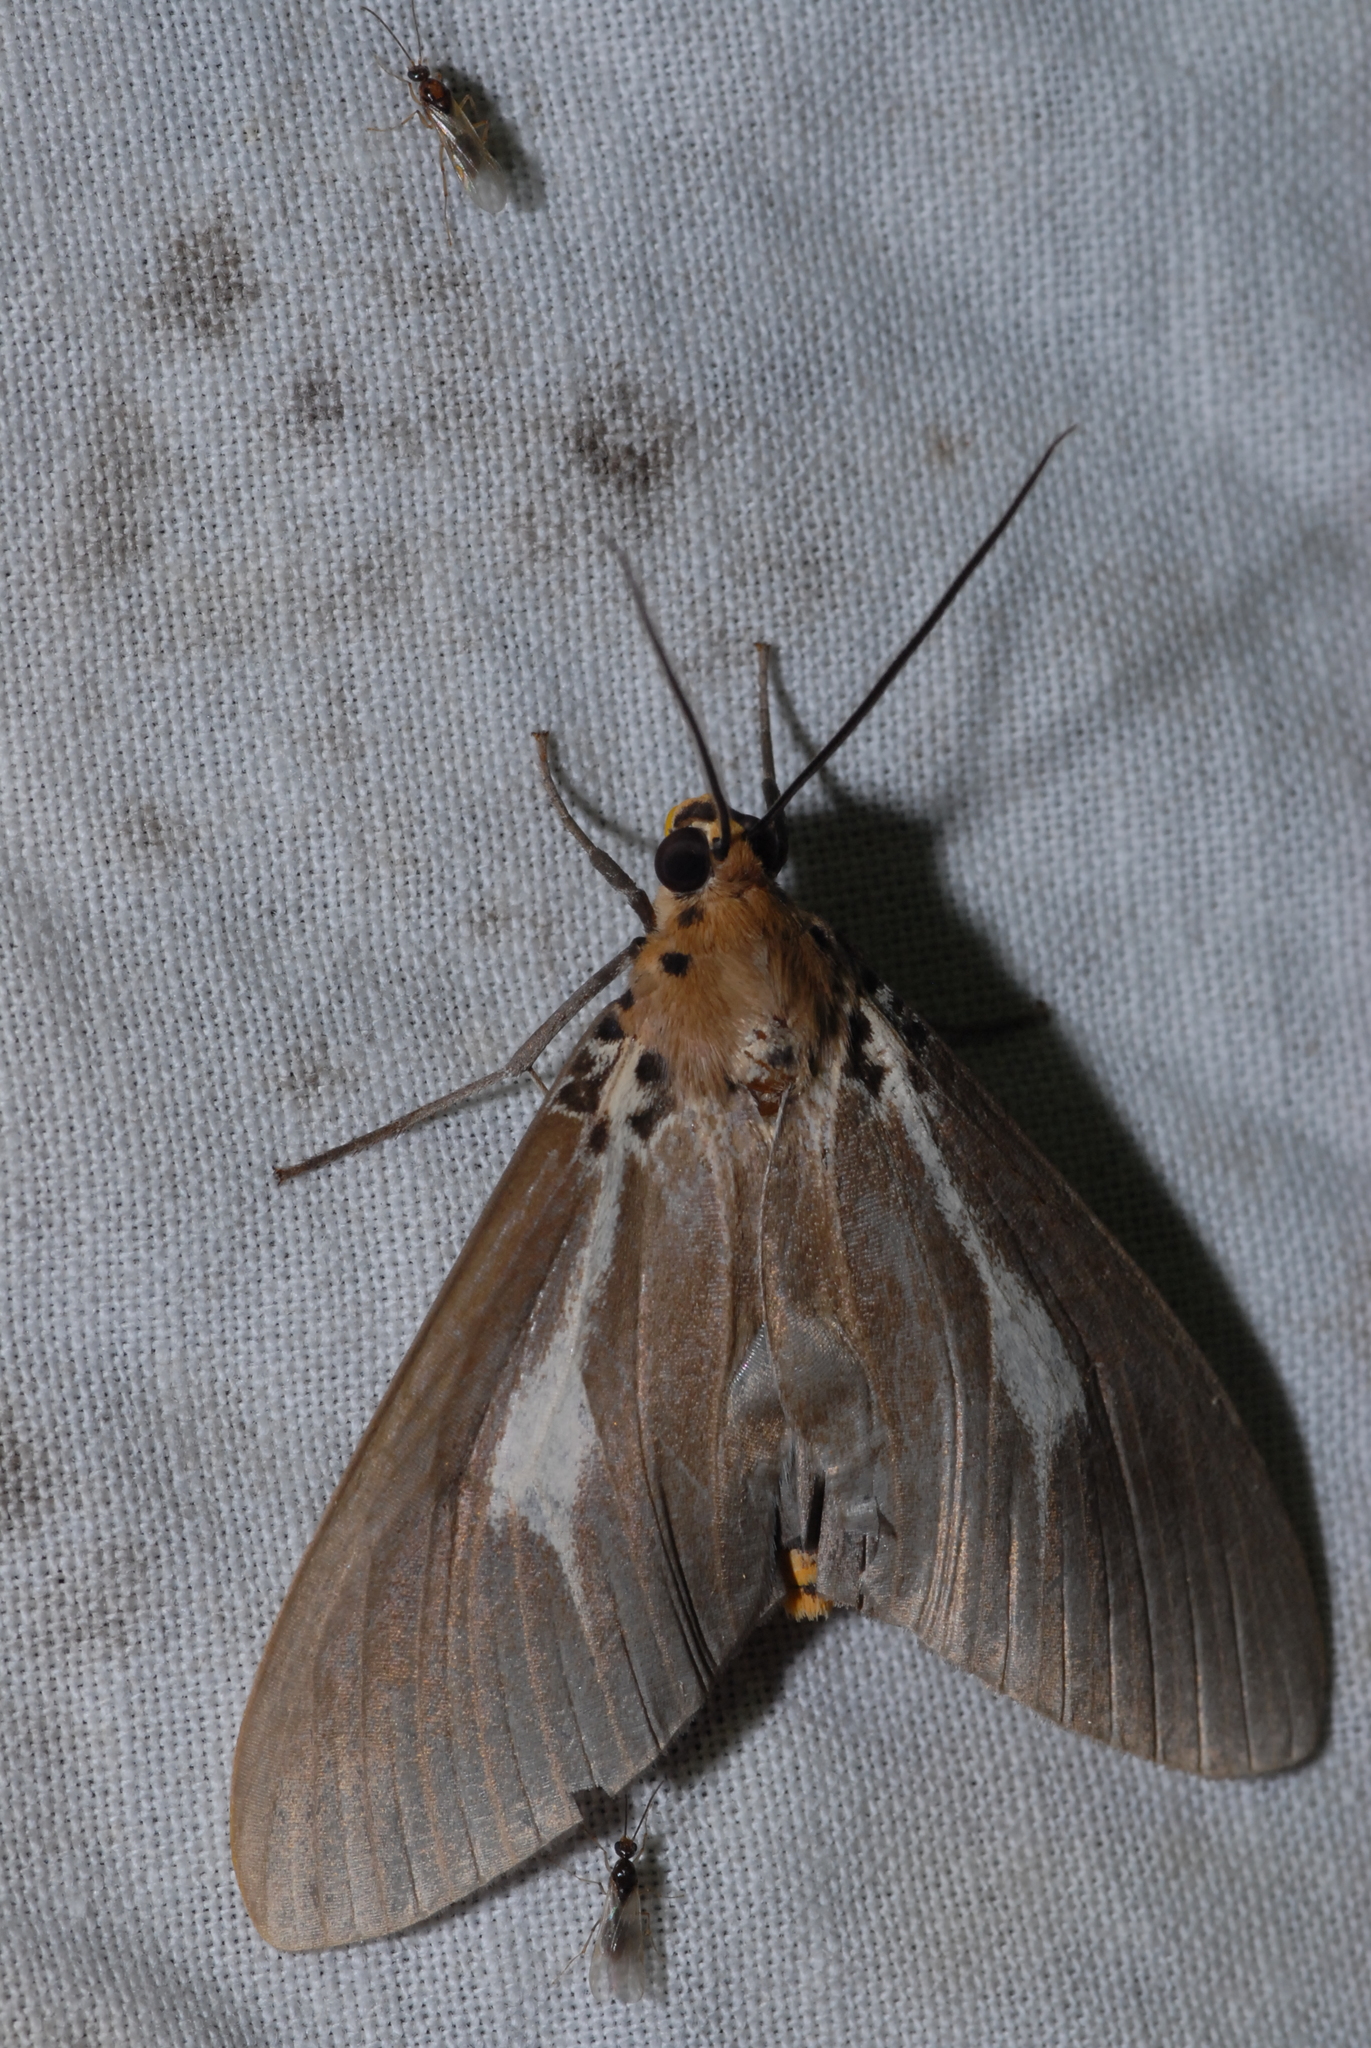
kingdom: Animalia
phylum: Arthropoda
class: Insecta
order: Lepidoptera
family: Erebidae
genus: Asota
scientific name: Asota heliconia
